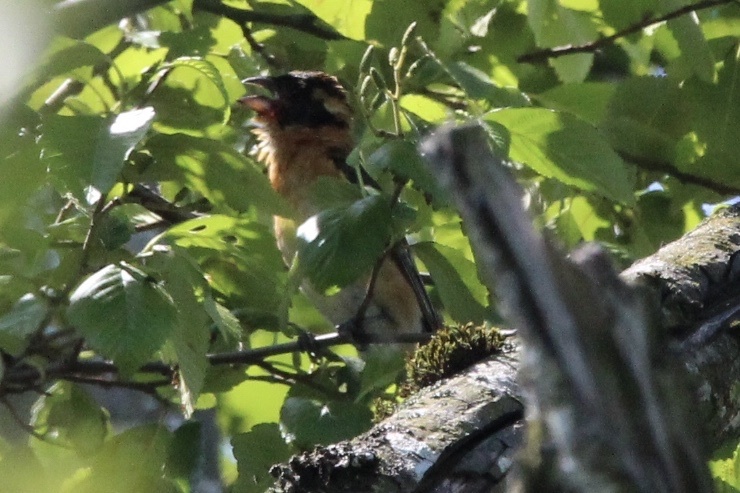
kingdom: Animalia
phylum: Chordata
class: Aves
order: Passeriformes
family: Cardinalidae
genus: Pheucticus
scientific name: Pheucticus melanocephalus
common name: Black-headed grosbeak
